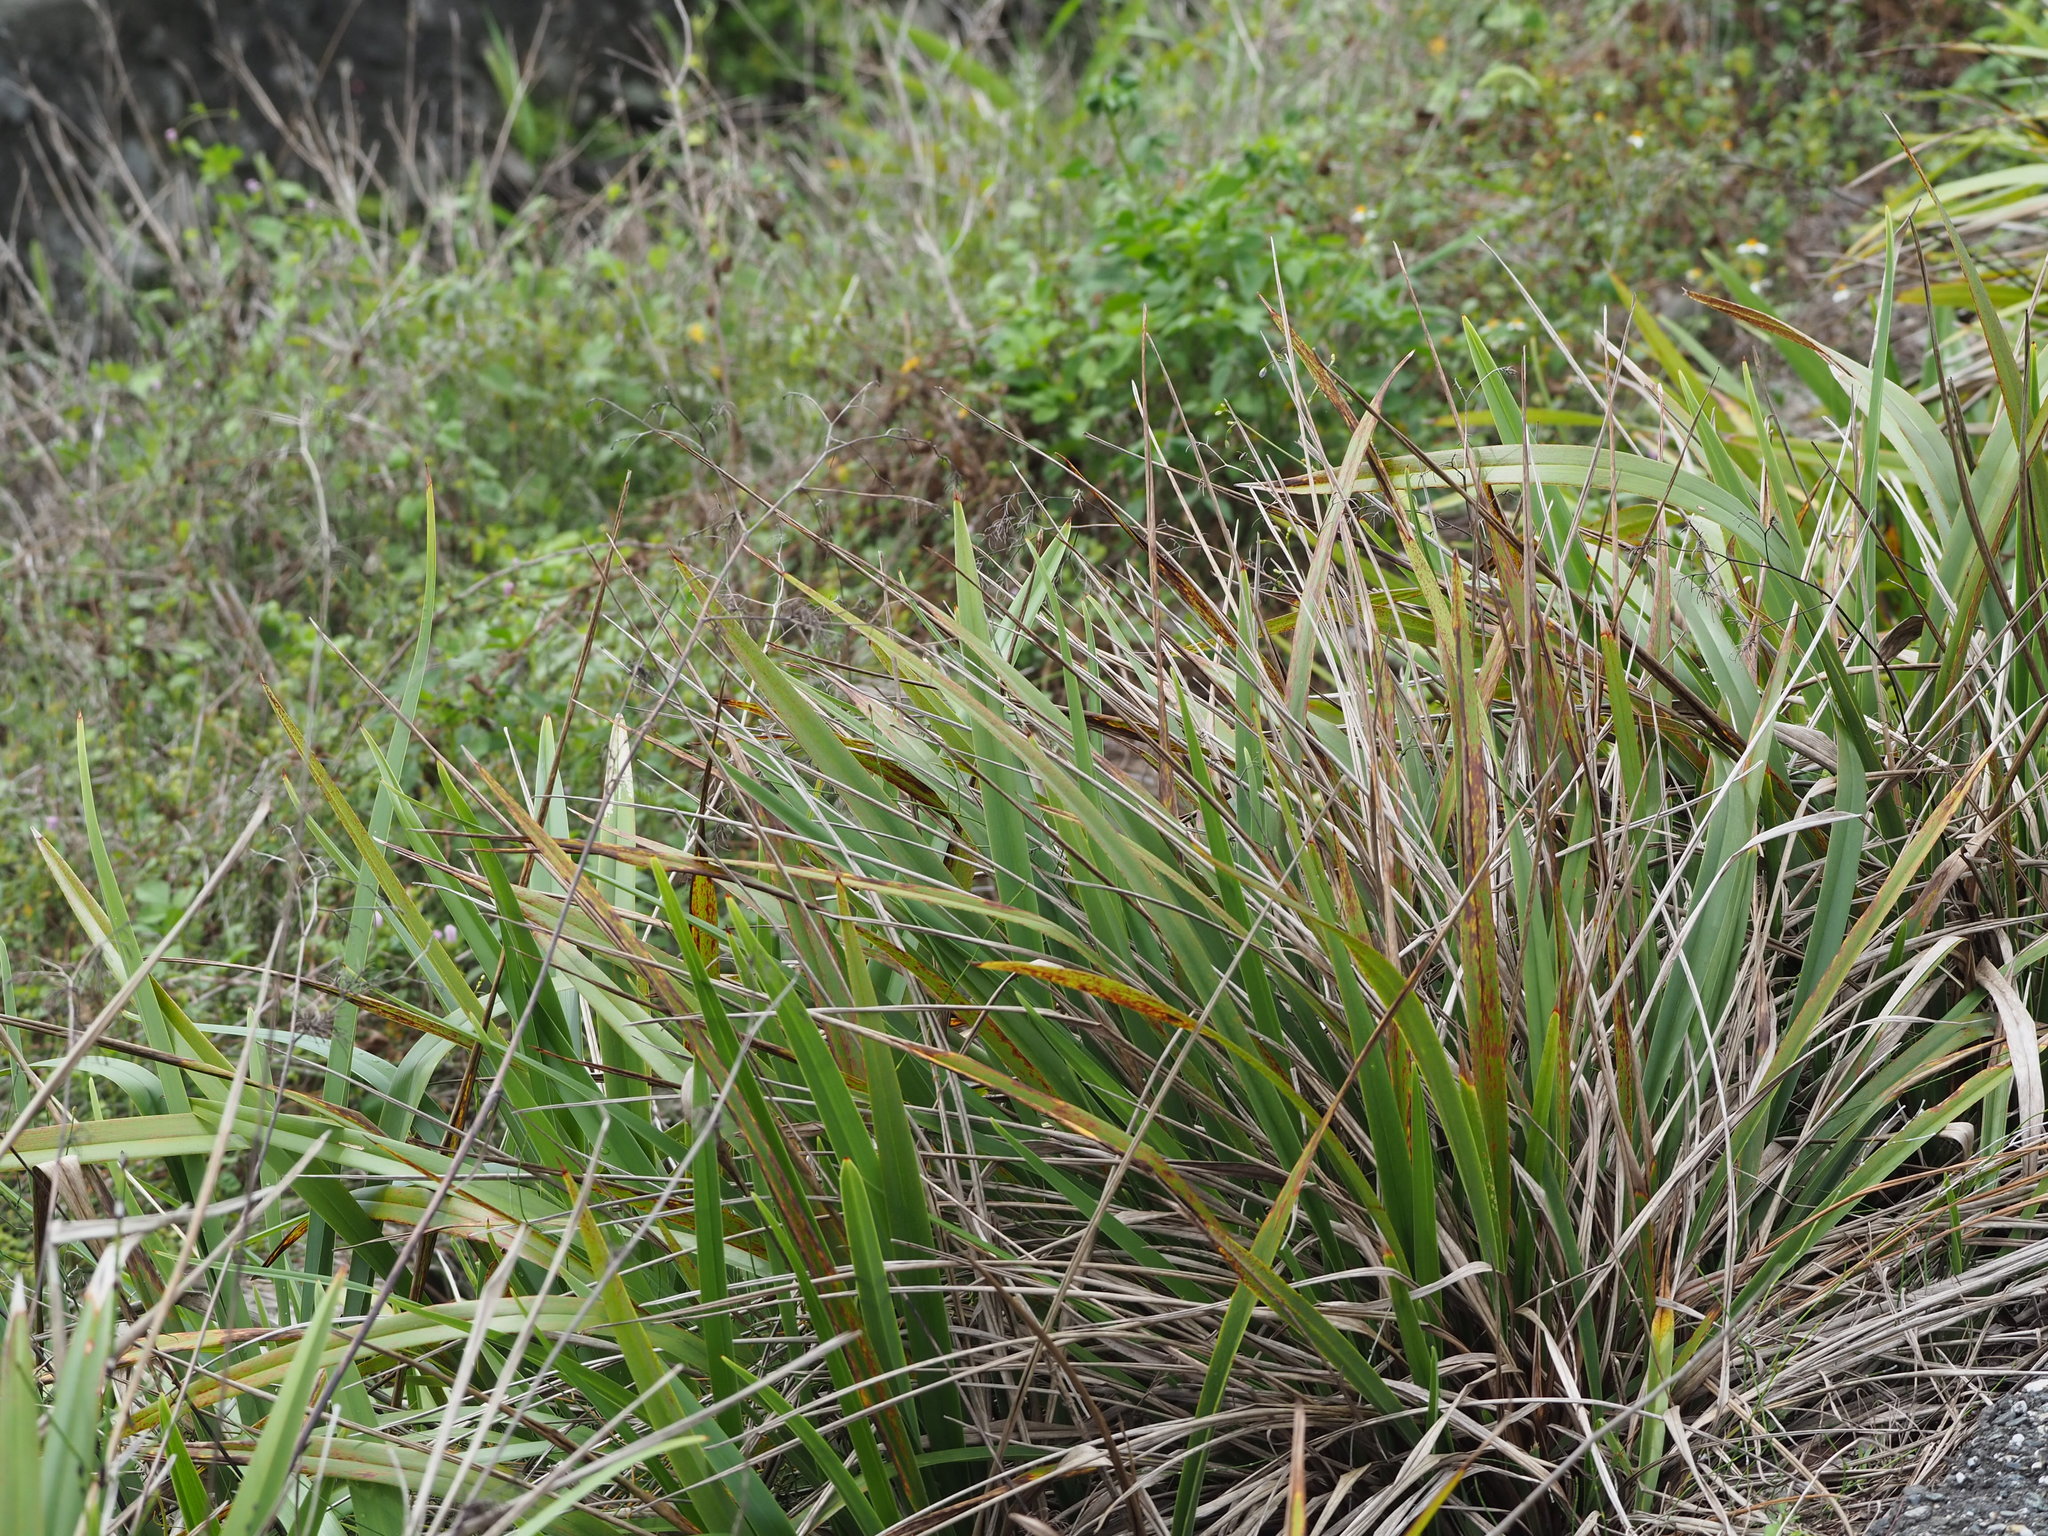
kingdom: Plantae
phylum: Tracheophyta
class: Liliopsida
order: Asparagales
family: Asphodelaceae
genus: Dianella
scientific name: Dianella ensifolia
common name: New zealand lilyplant
